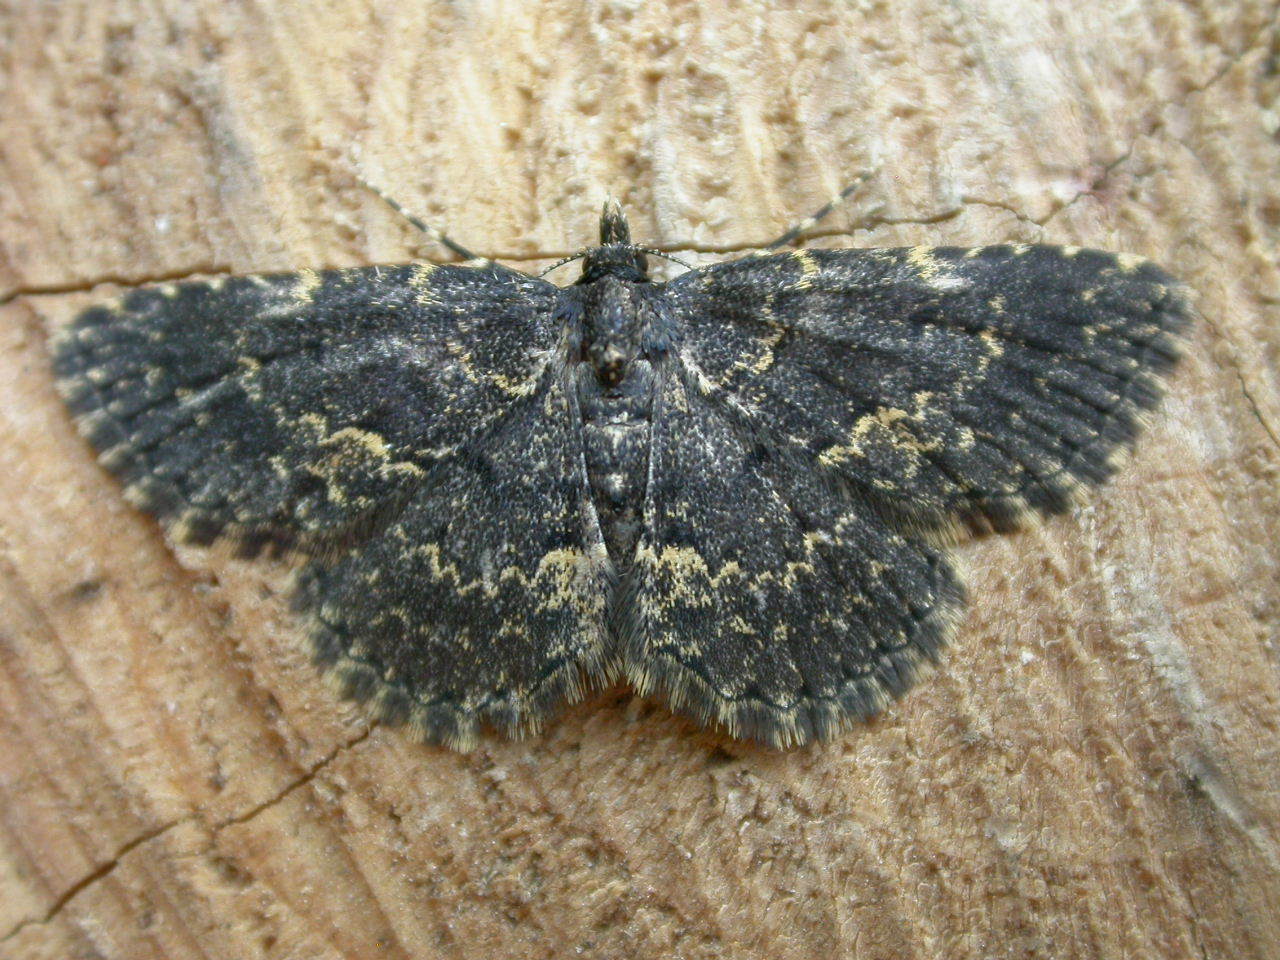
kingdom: Animalia
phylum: Arthropoda
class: Insecta
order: Lepidoptera
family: Erebidae
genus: Parascotia
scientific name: Parascotia fuliginaria
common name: Waved black
